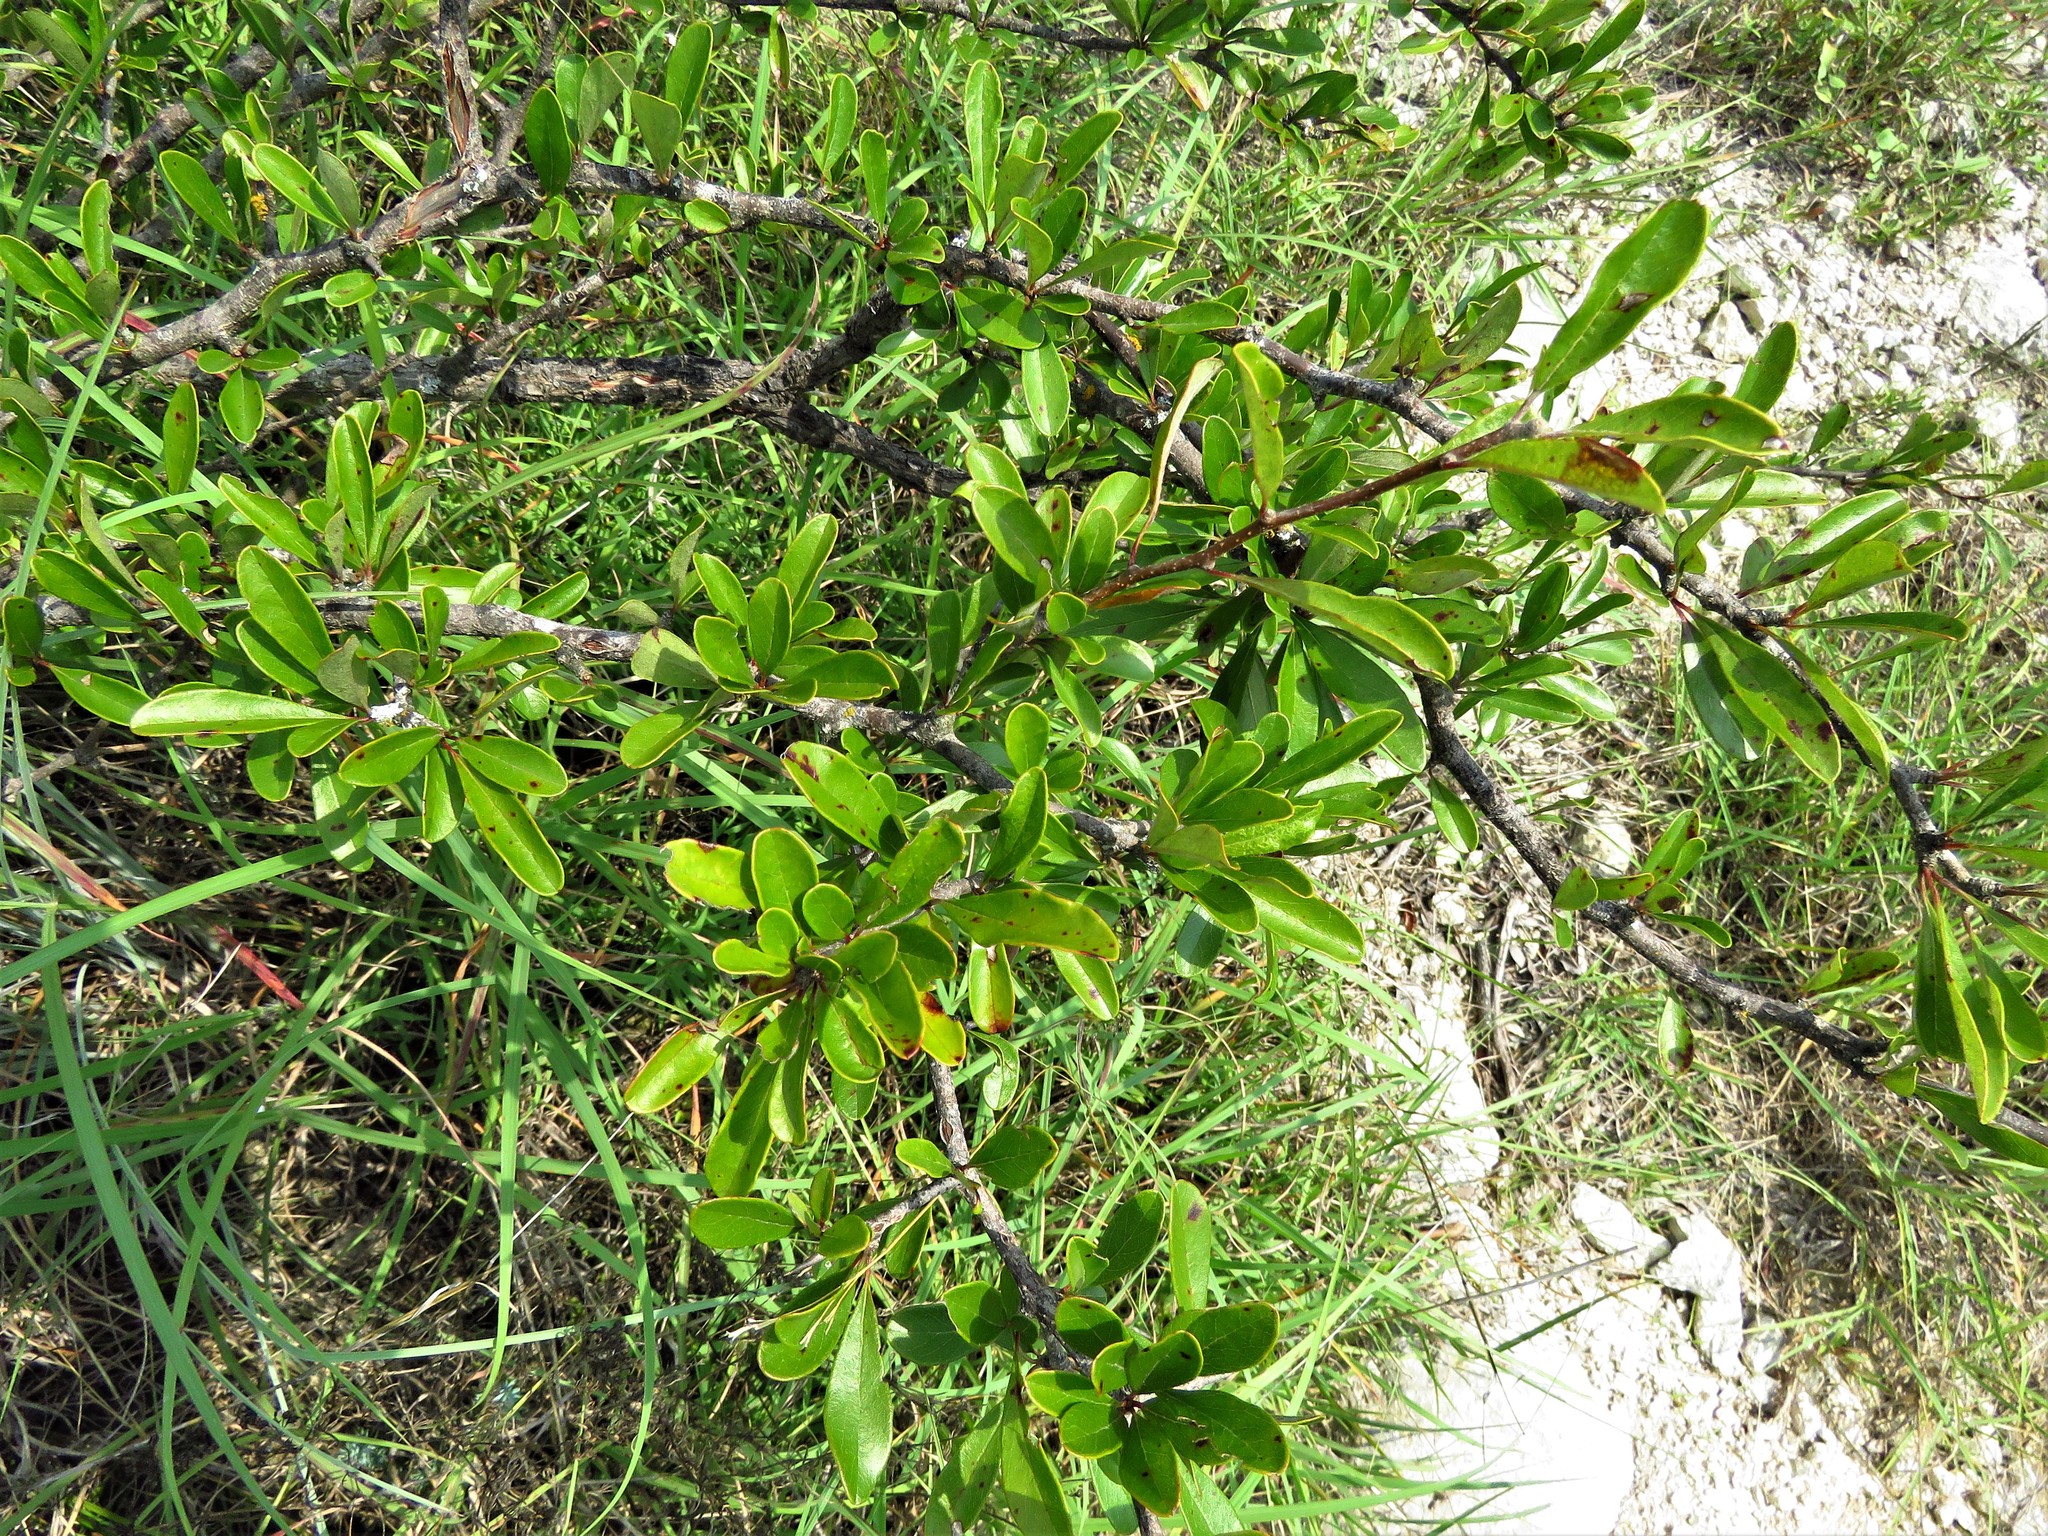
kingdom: Plantae
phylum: Tracheophyta
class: Magnoliopsida
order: Ericales
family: Sapotaceae
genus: Sideroxylon
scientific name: Sideroxylon lanuginosum
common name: Chittamwood
